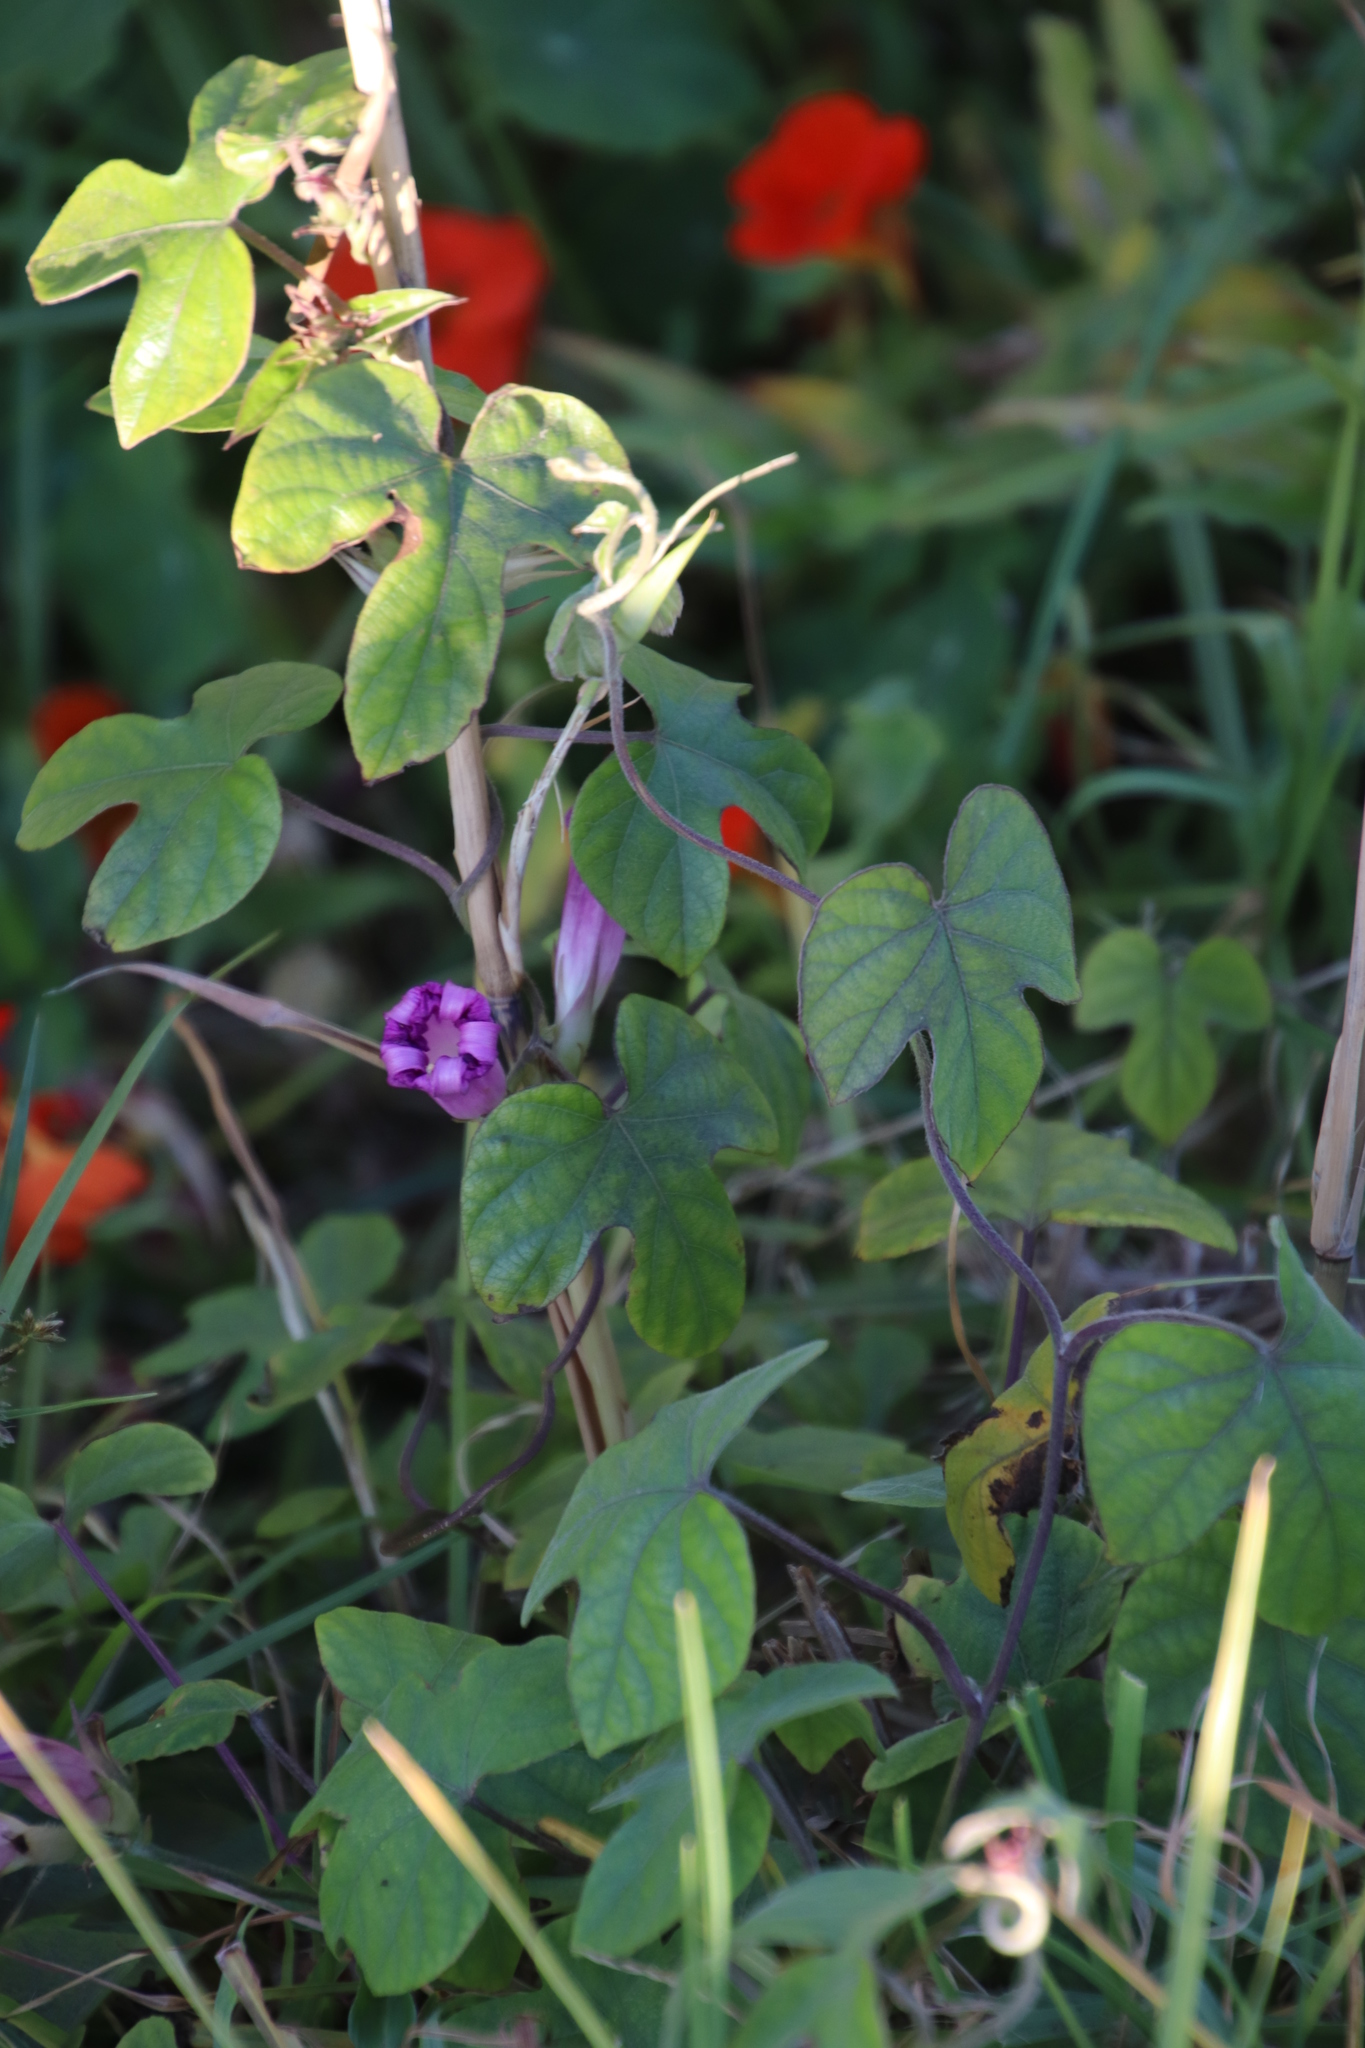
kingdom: Plantae
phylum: Tracheophyta
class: Magnoliopsida
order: Solanales
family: Convolvulaceae
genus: Ipomoea
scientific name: Ipomoea indica
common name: Blue dawnflower
